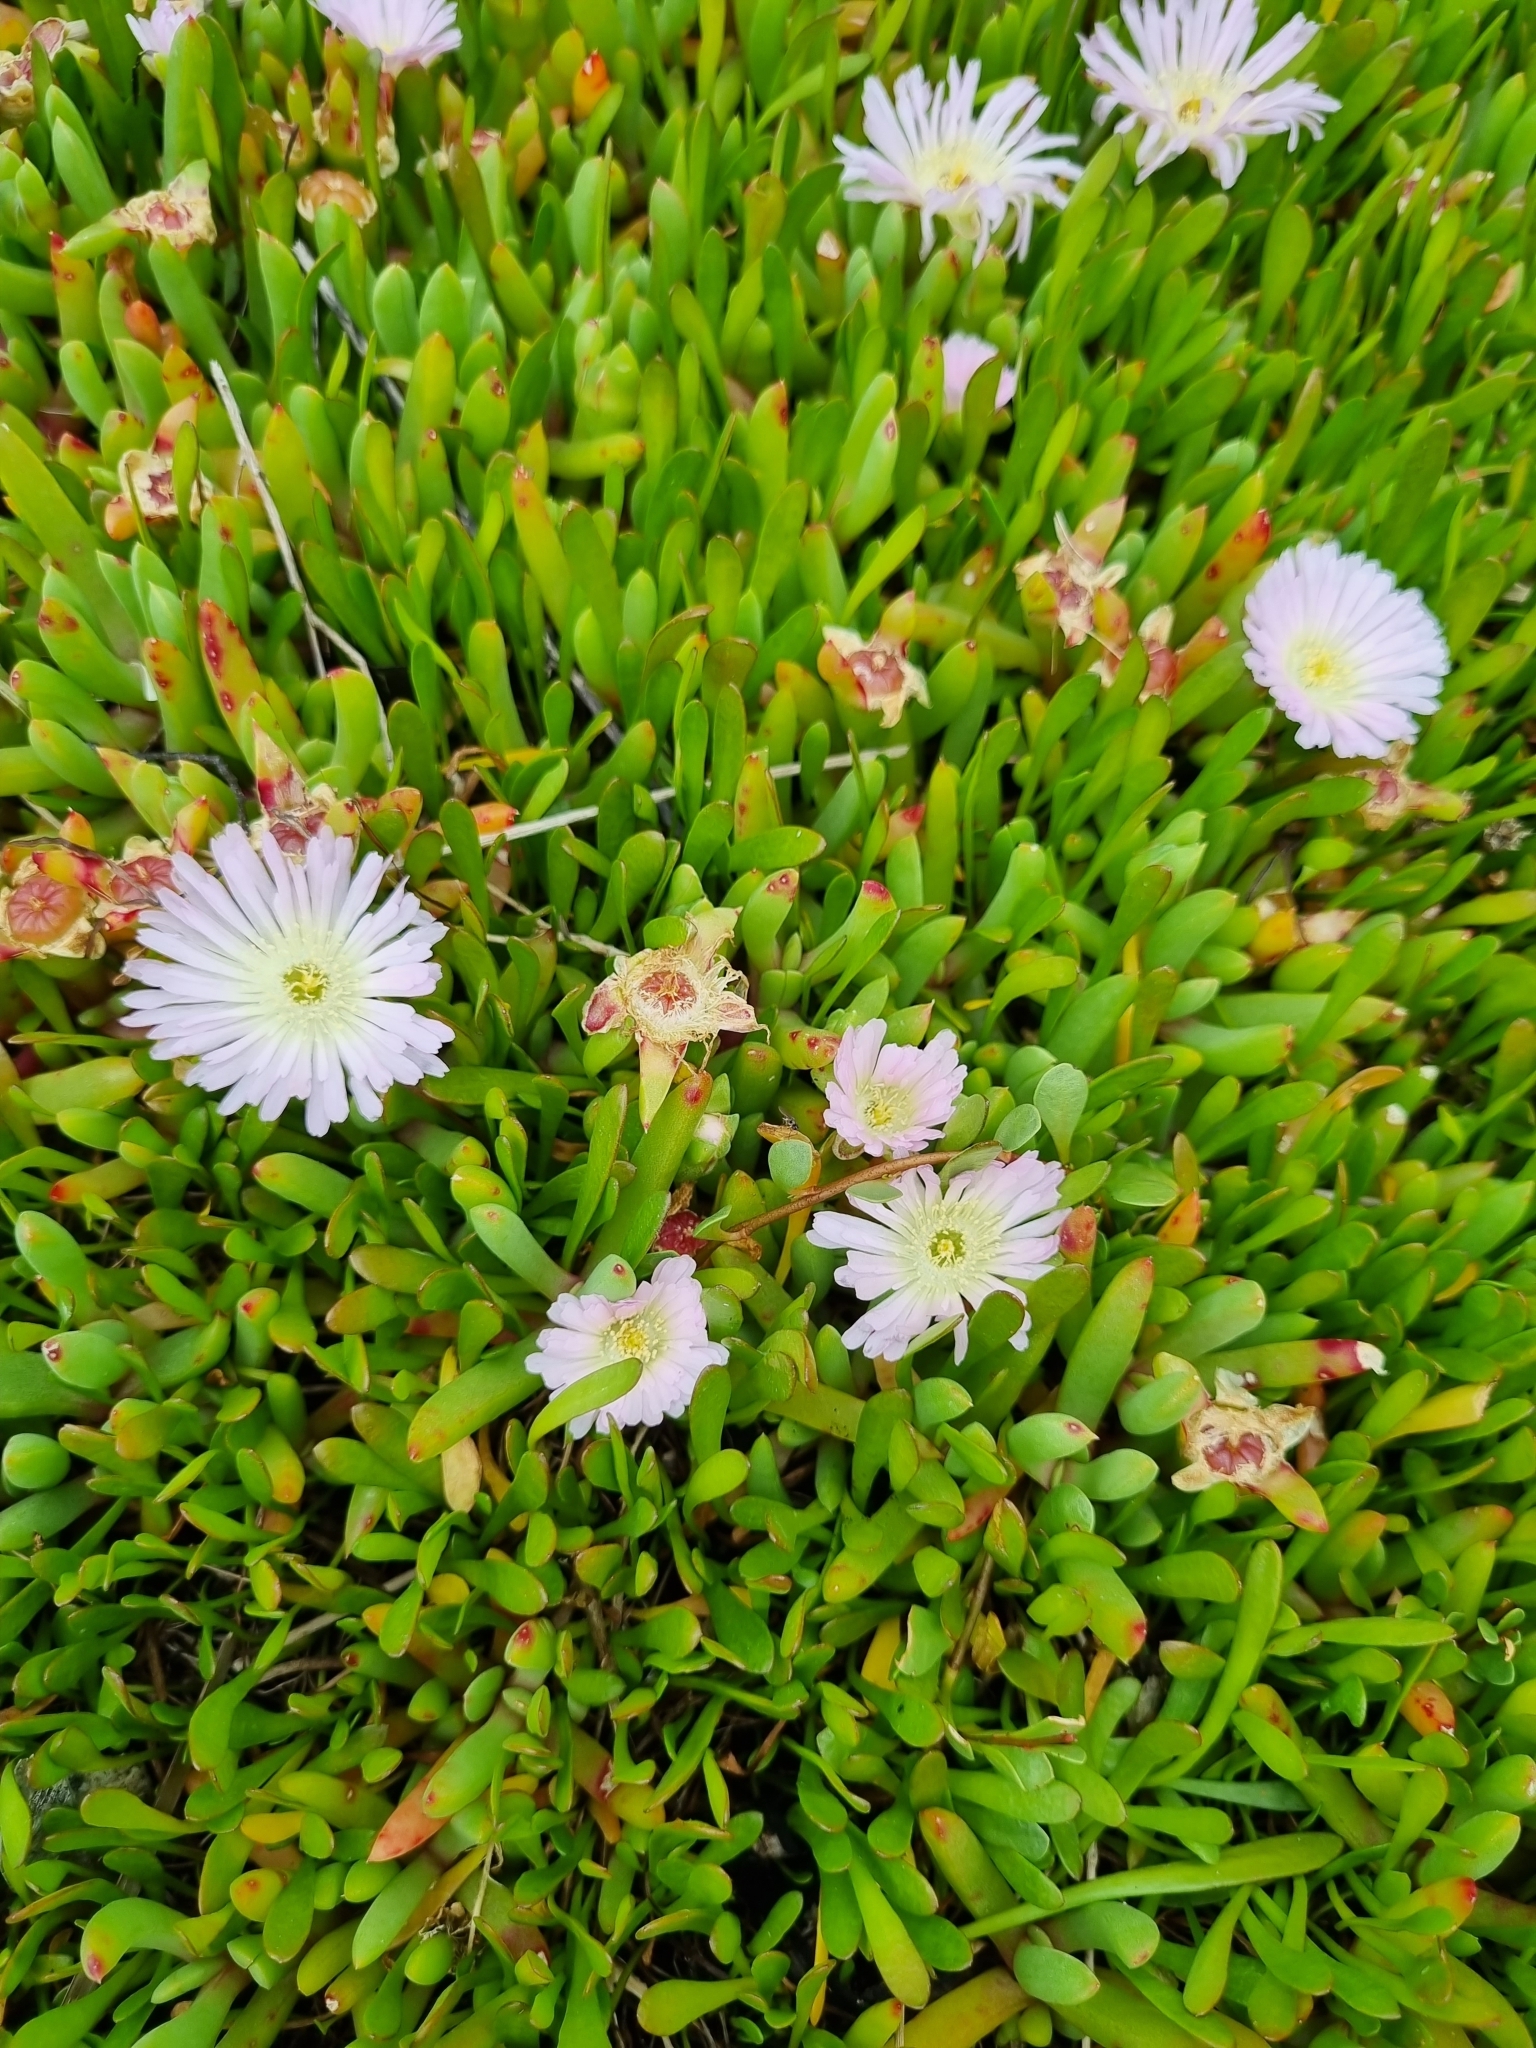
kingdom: Plantae
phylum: Tracheophyta
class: Magnoliopsida
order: Caryophyllales
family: Aizoaceae
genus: Disphyma
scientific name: Disphyma australe
